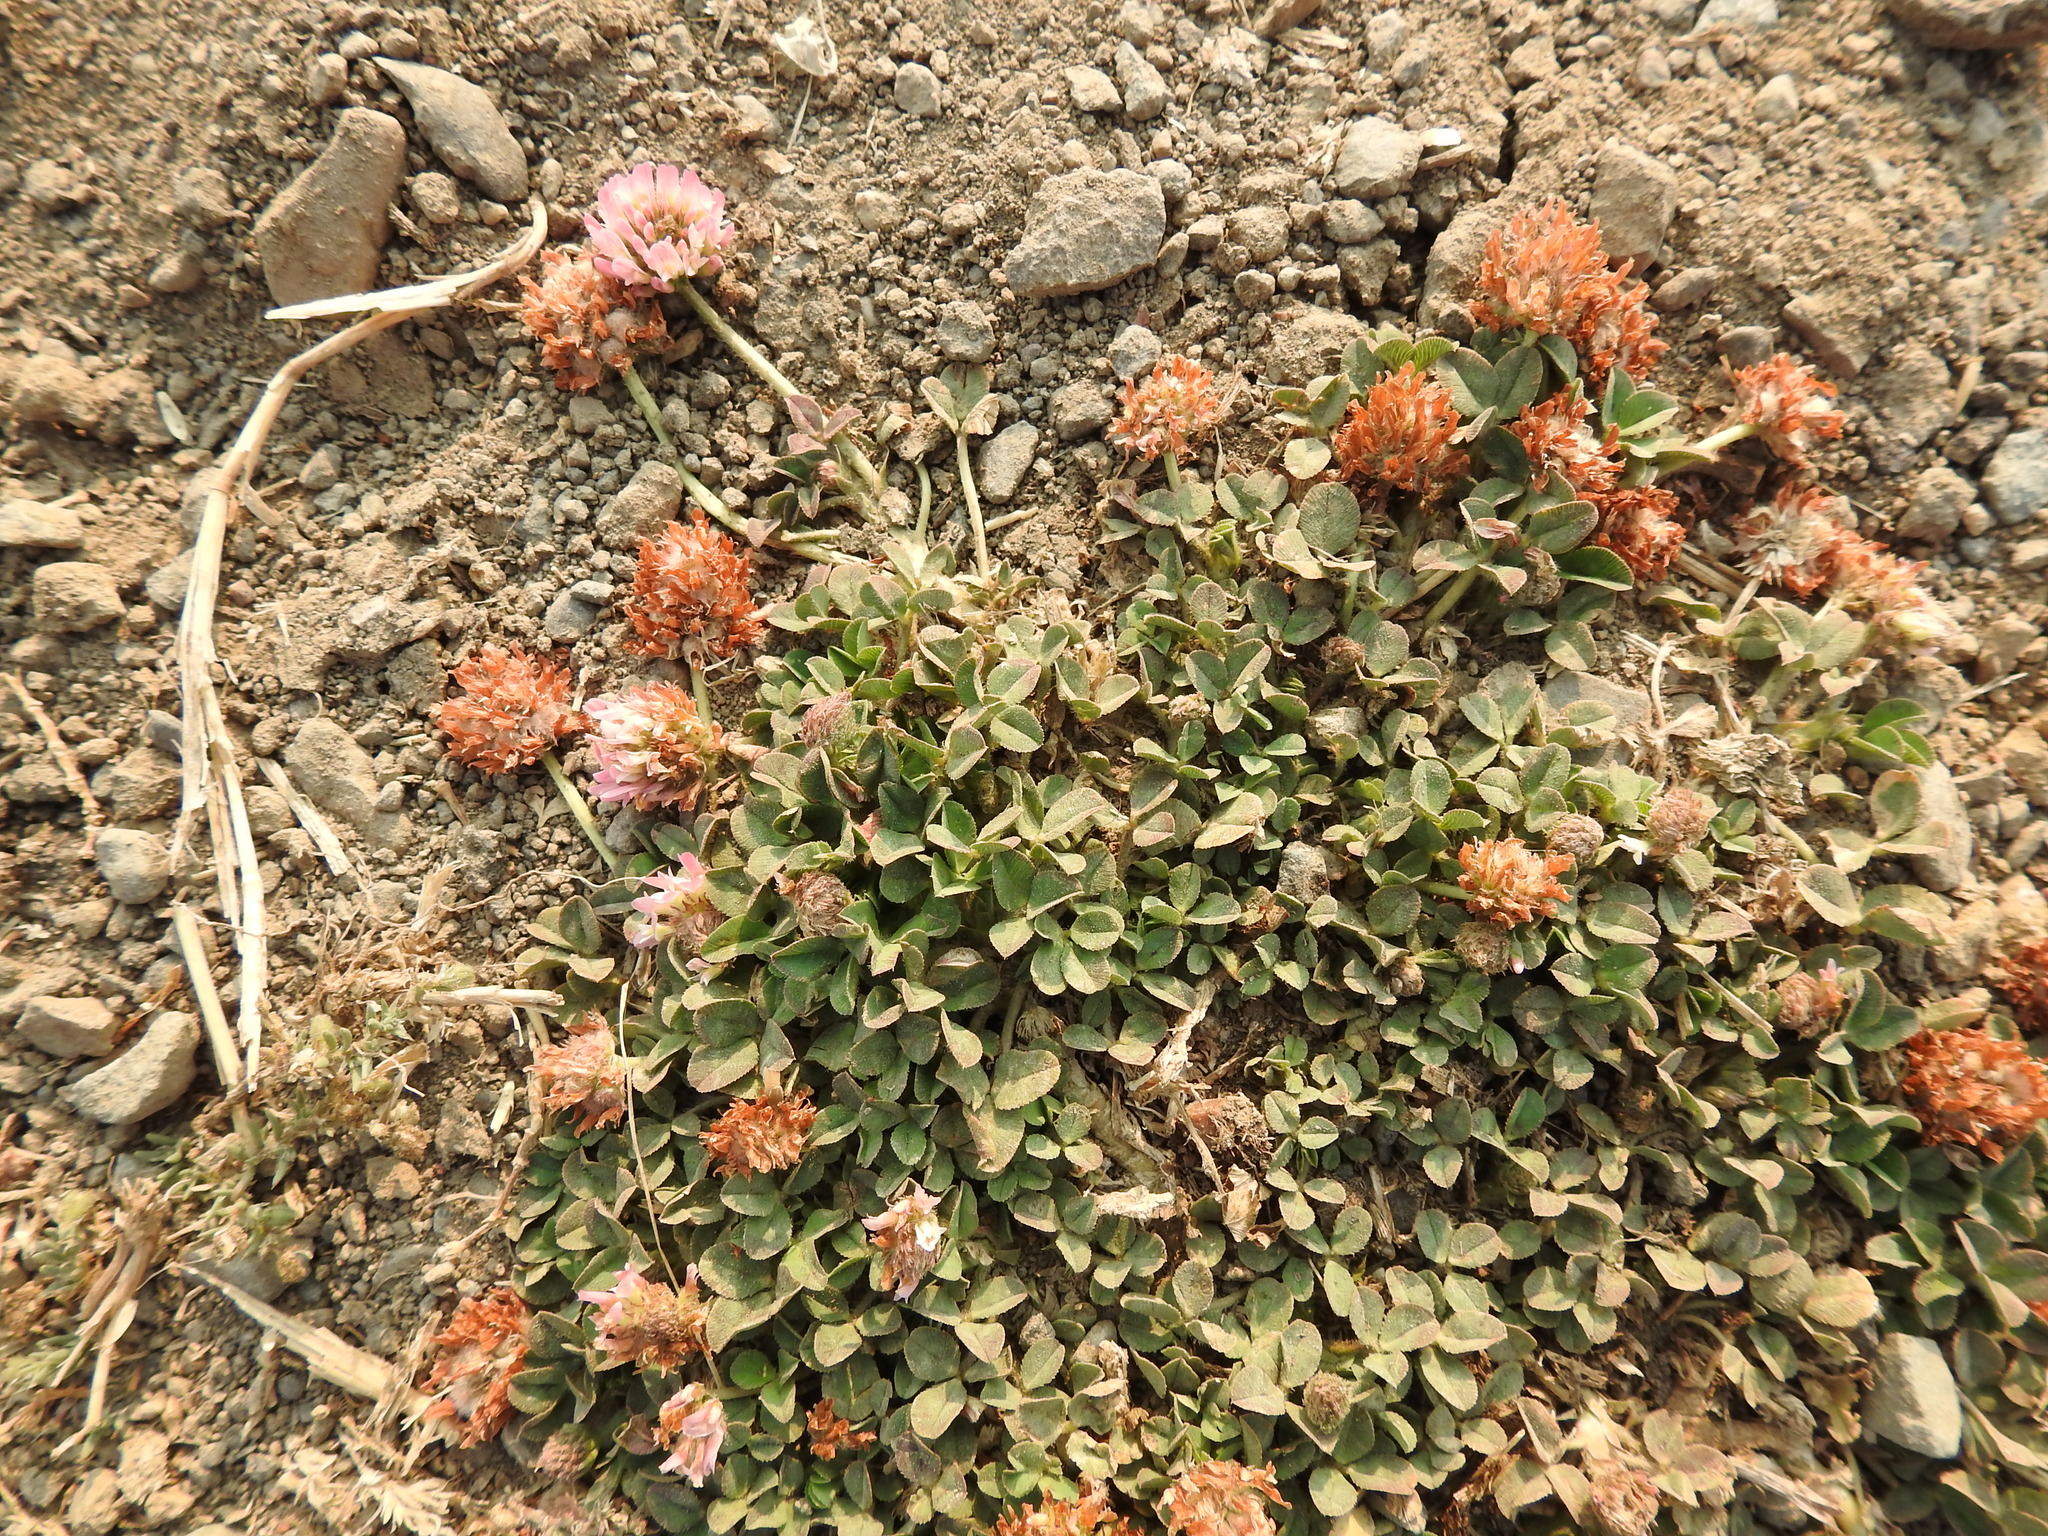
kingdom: Plantae
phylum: Tracheophyta
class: Magnoliopsida
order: Fabales
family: Fabaceae
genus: Trifolium
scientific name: Trifolium fragiferum
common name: Strawberry clover
